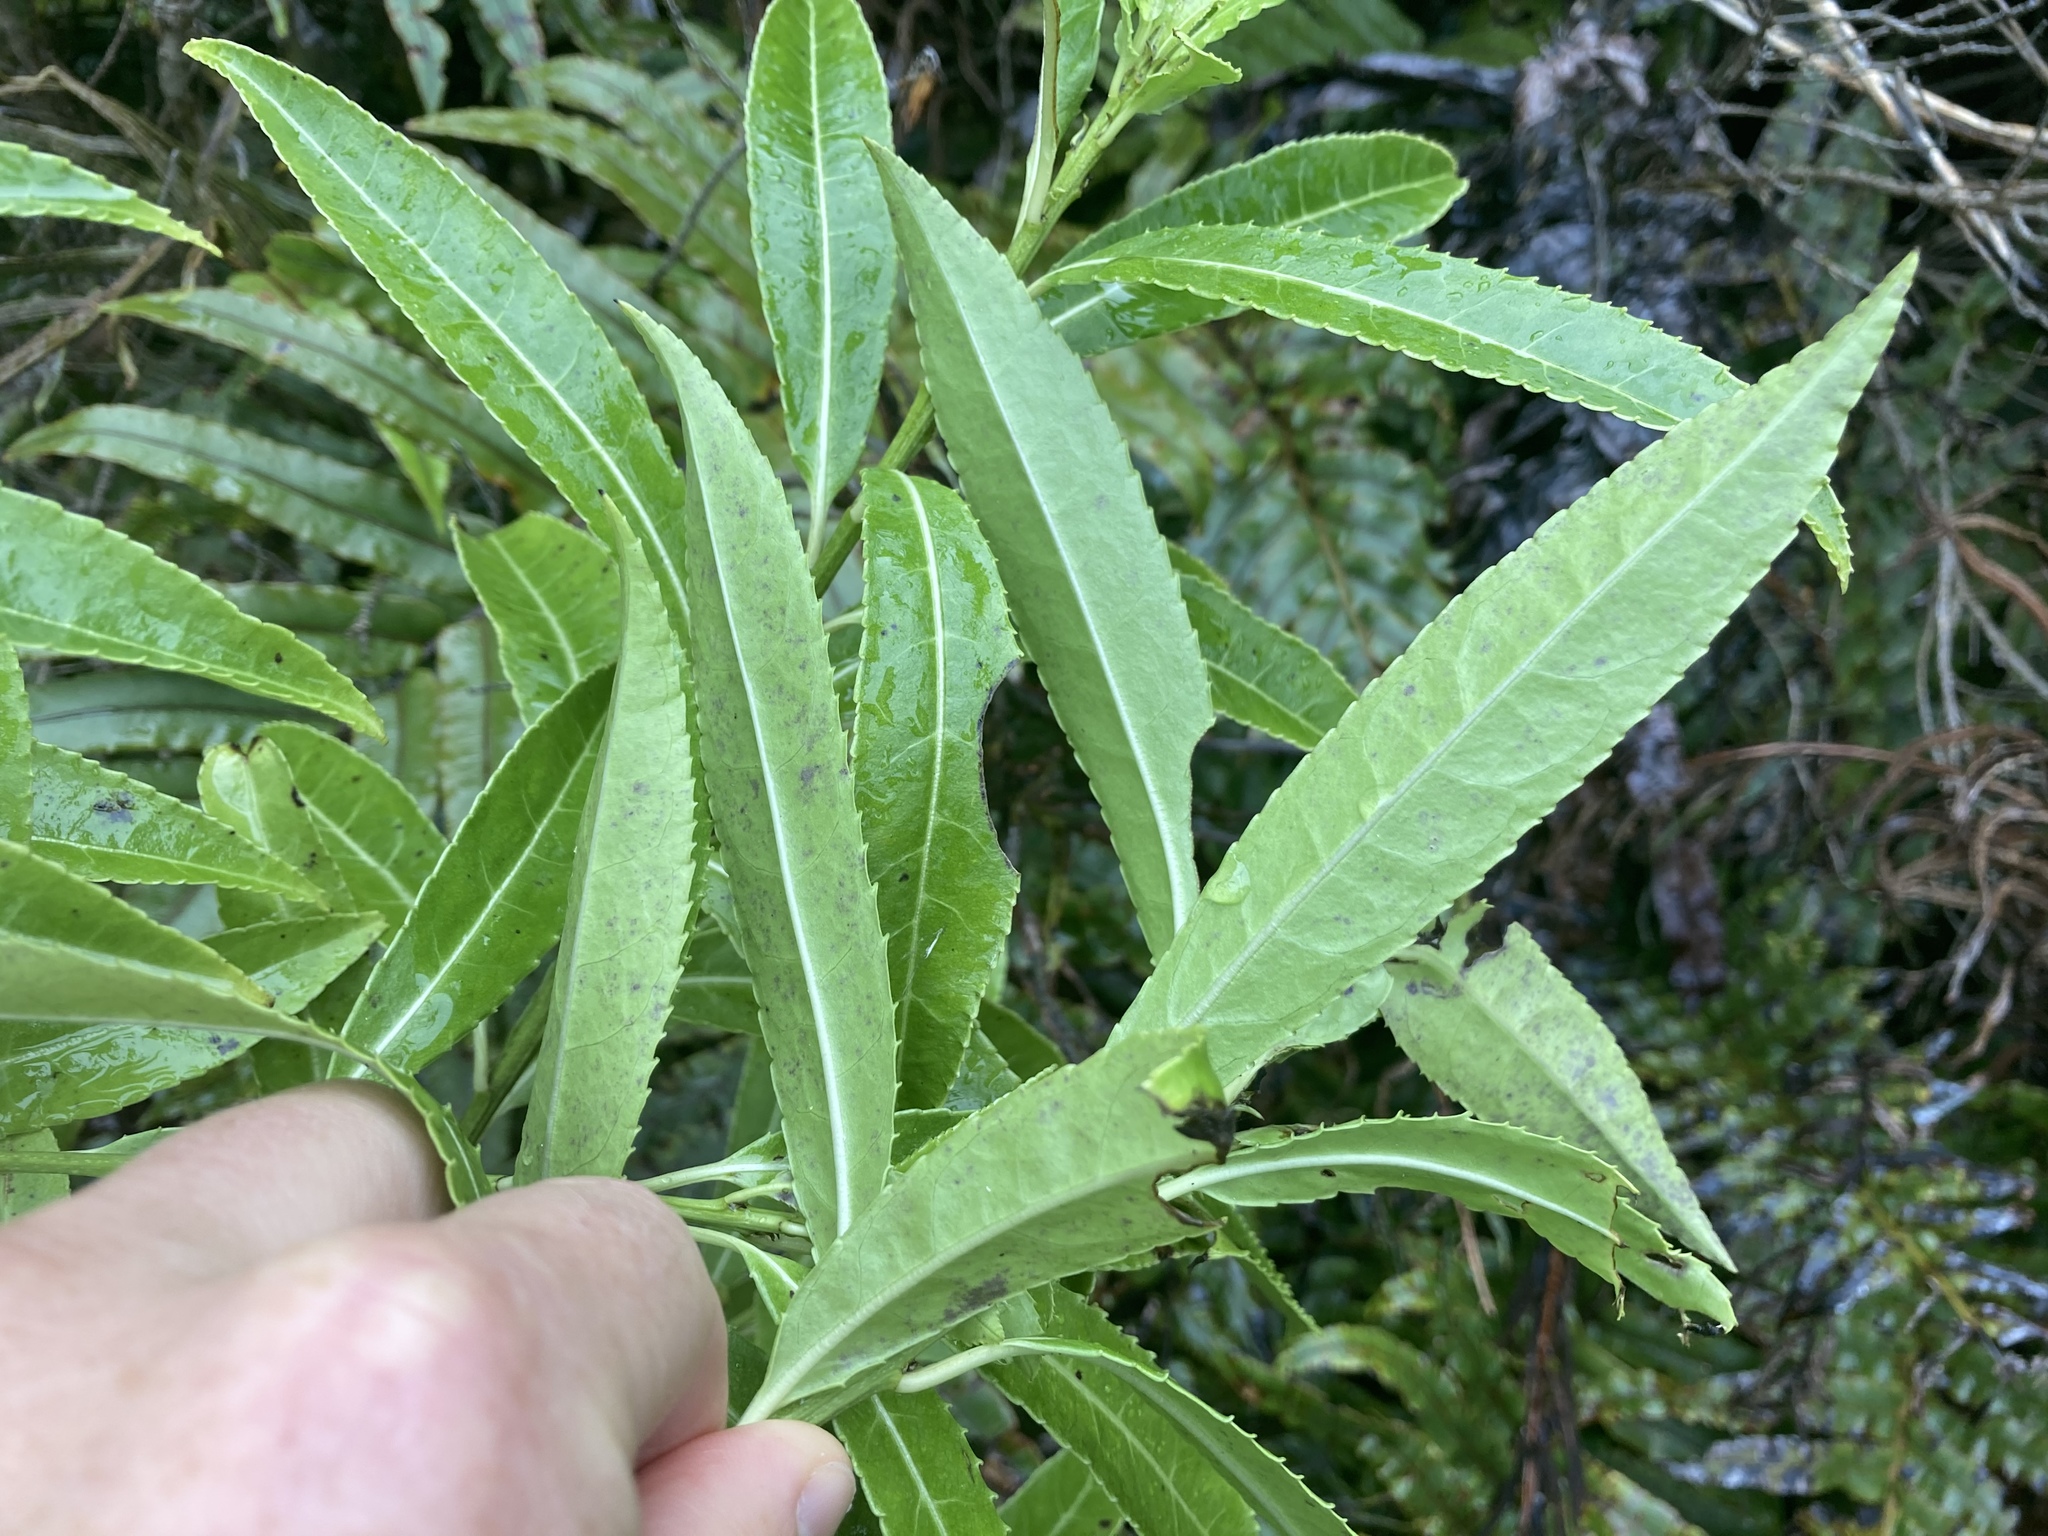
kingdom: Plantae
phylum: Tracheophyta
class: Magnoliopsida
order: Malpighiales
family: Violaceae
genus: Melicytus
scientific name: Melicytus lanceolatus
